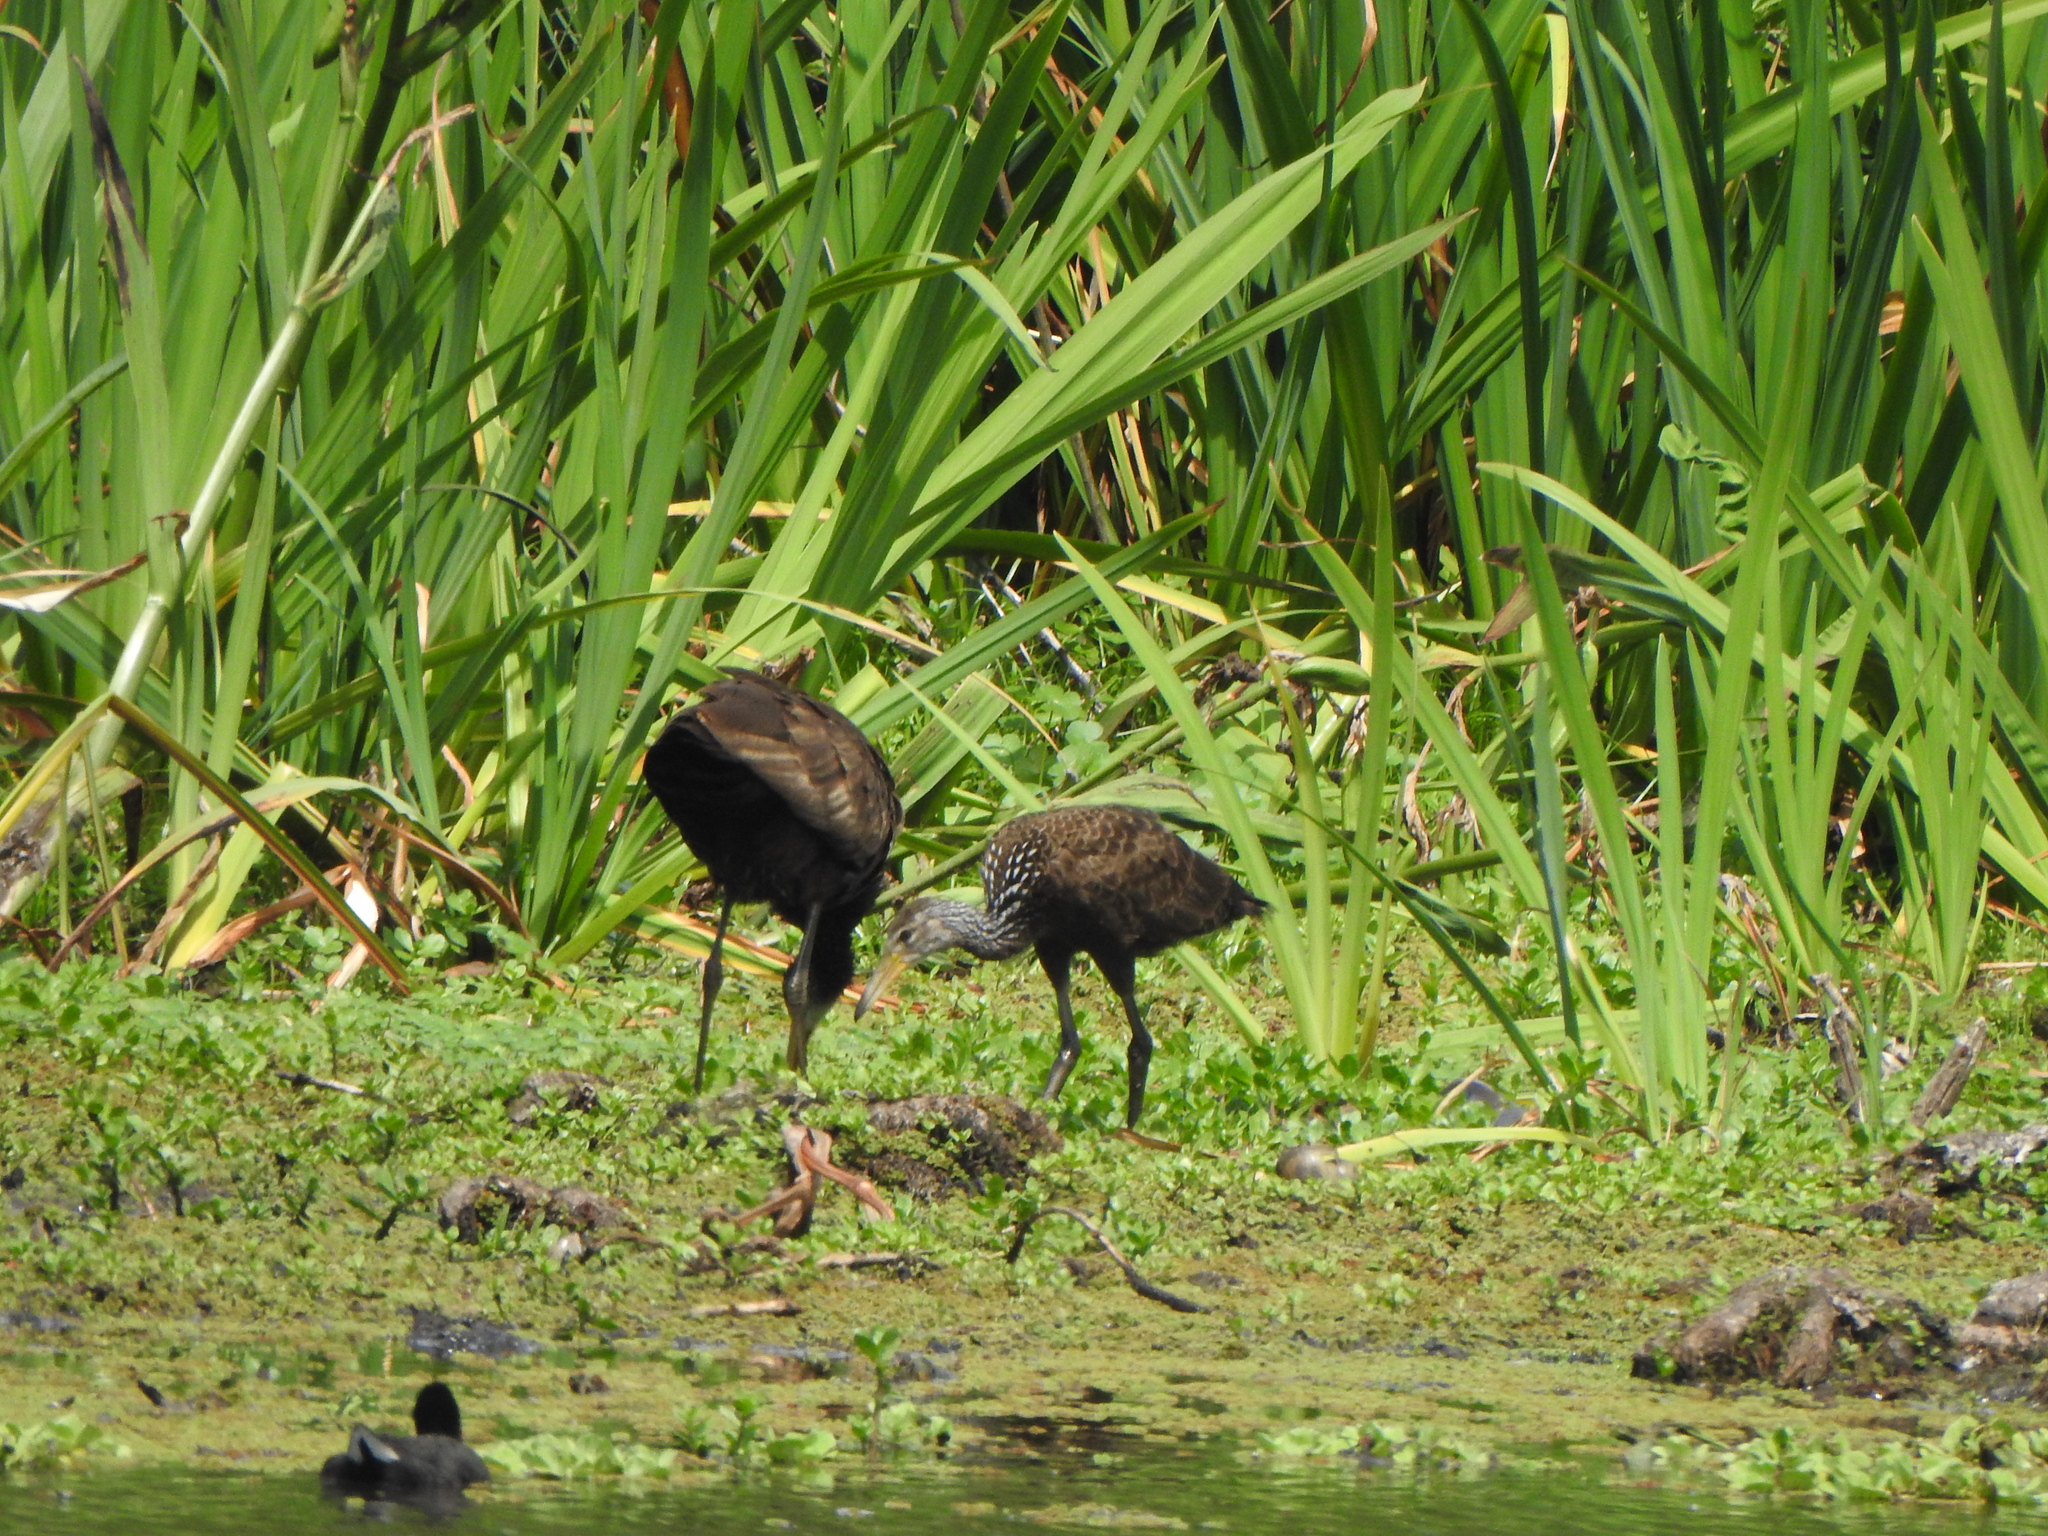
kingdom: Animalia
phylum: Chordata
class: Aves
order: Gruiformes
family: Aramidae
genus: Aramus
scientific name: Aramus guarauna
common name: Limpkin
